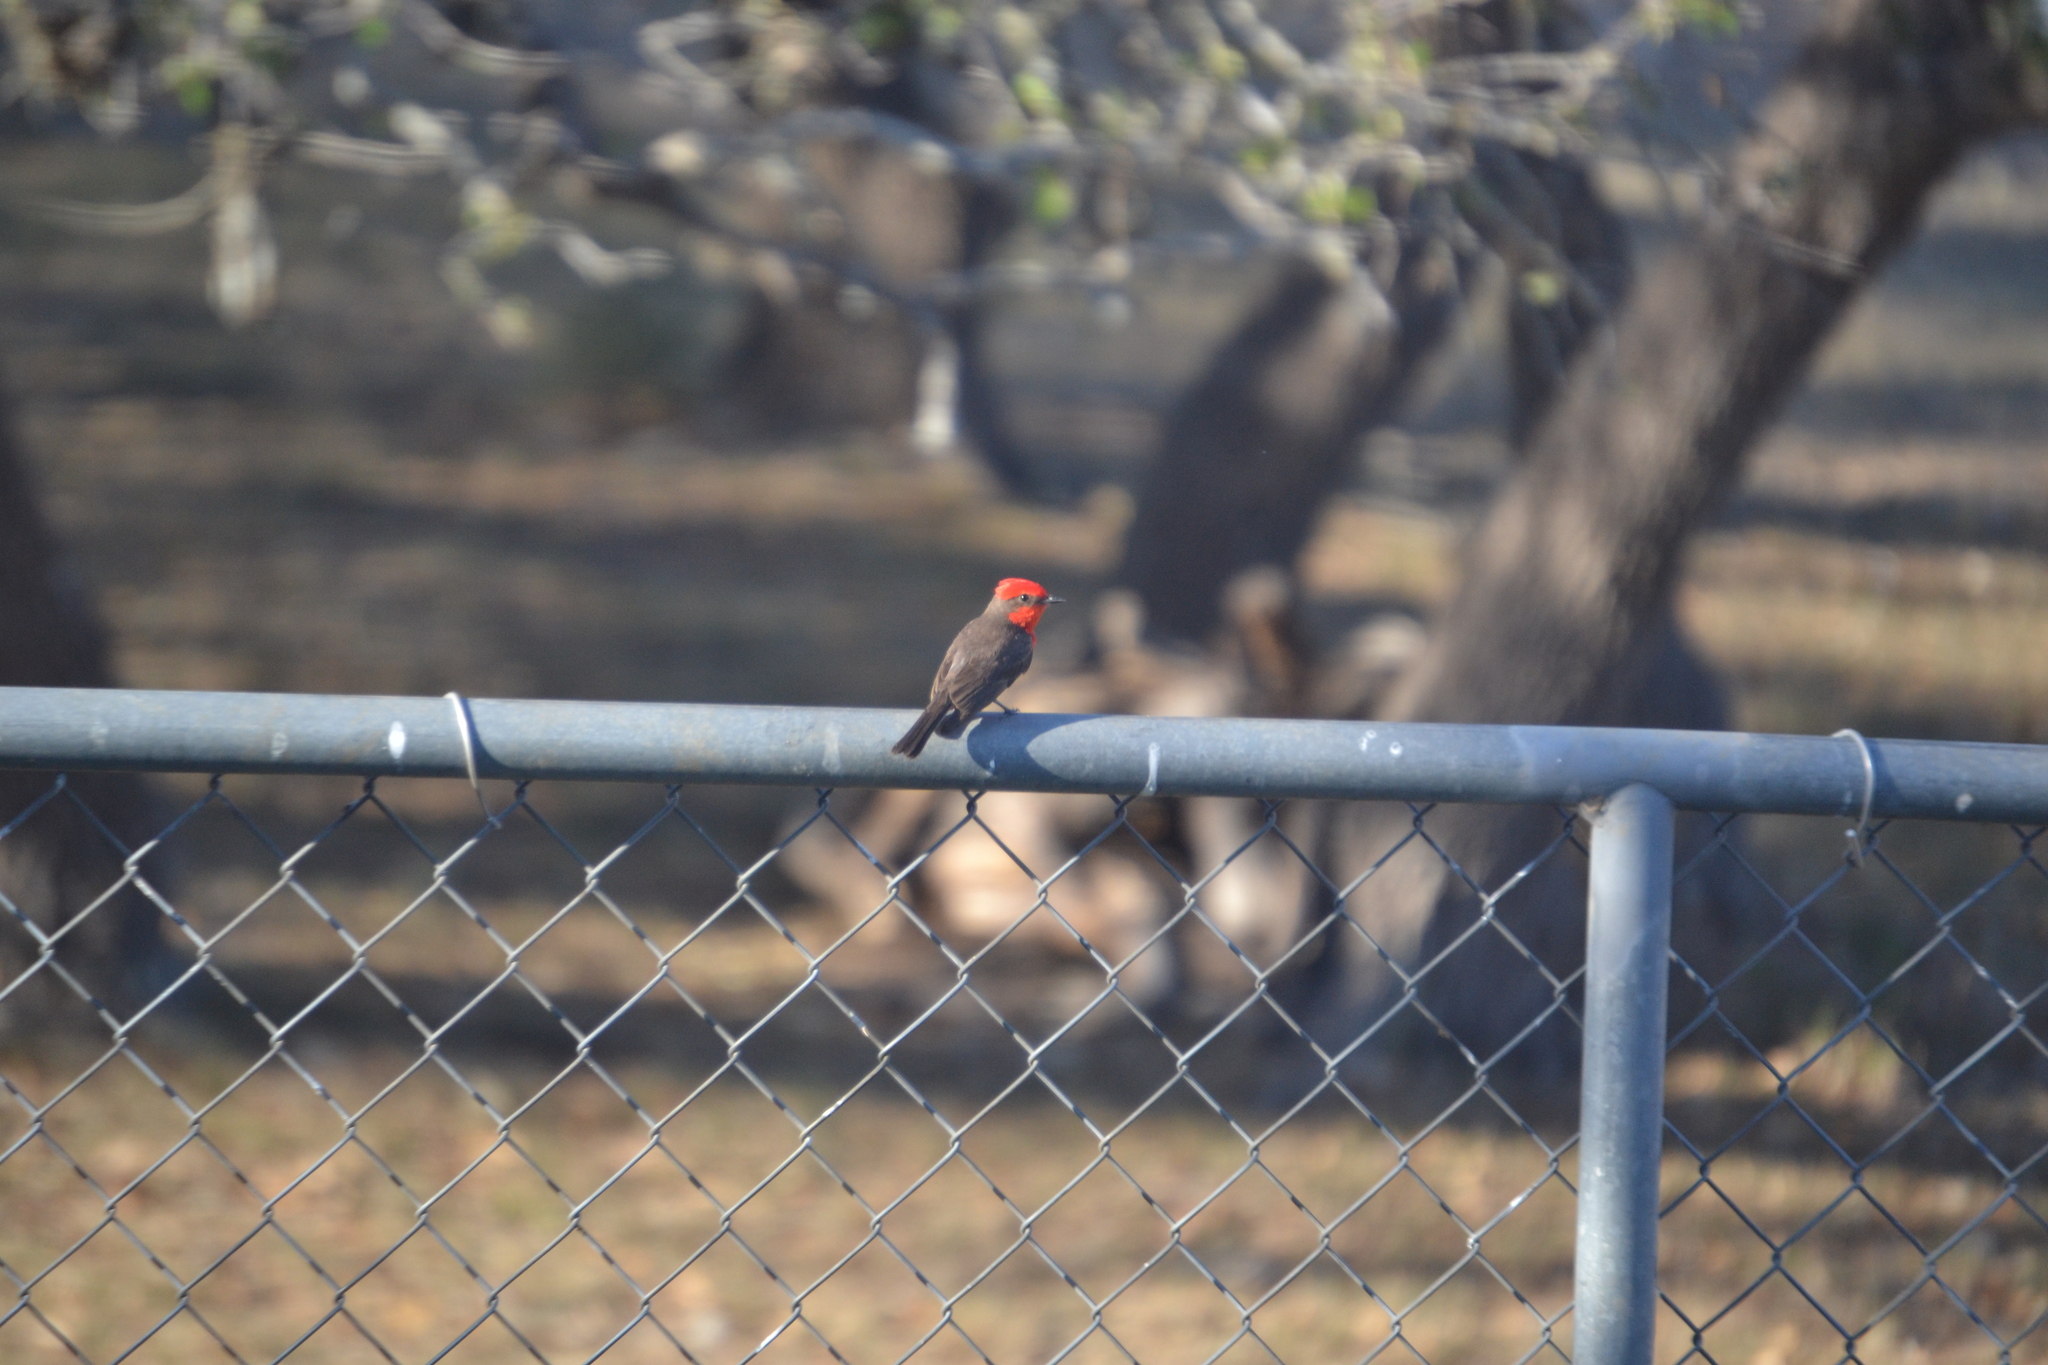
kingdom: Animalia
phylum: Chordata
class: Aves
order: Passeriformes
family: Tyrannidae
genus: Pyrocephalus
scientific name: Pyrocephalus rubinus
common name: Vermilion flycatcher
